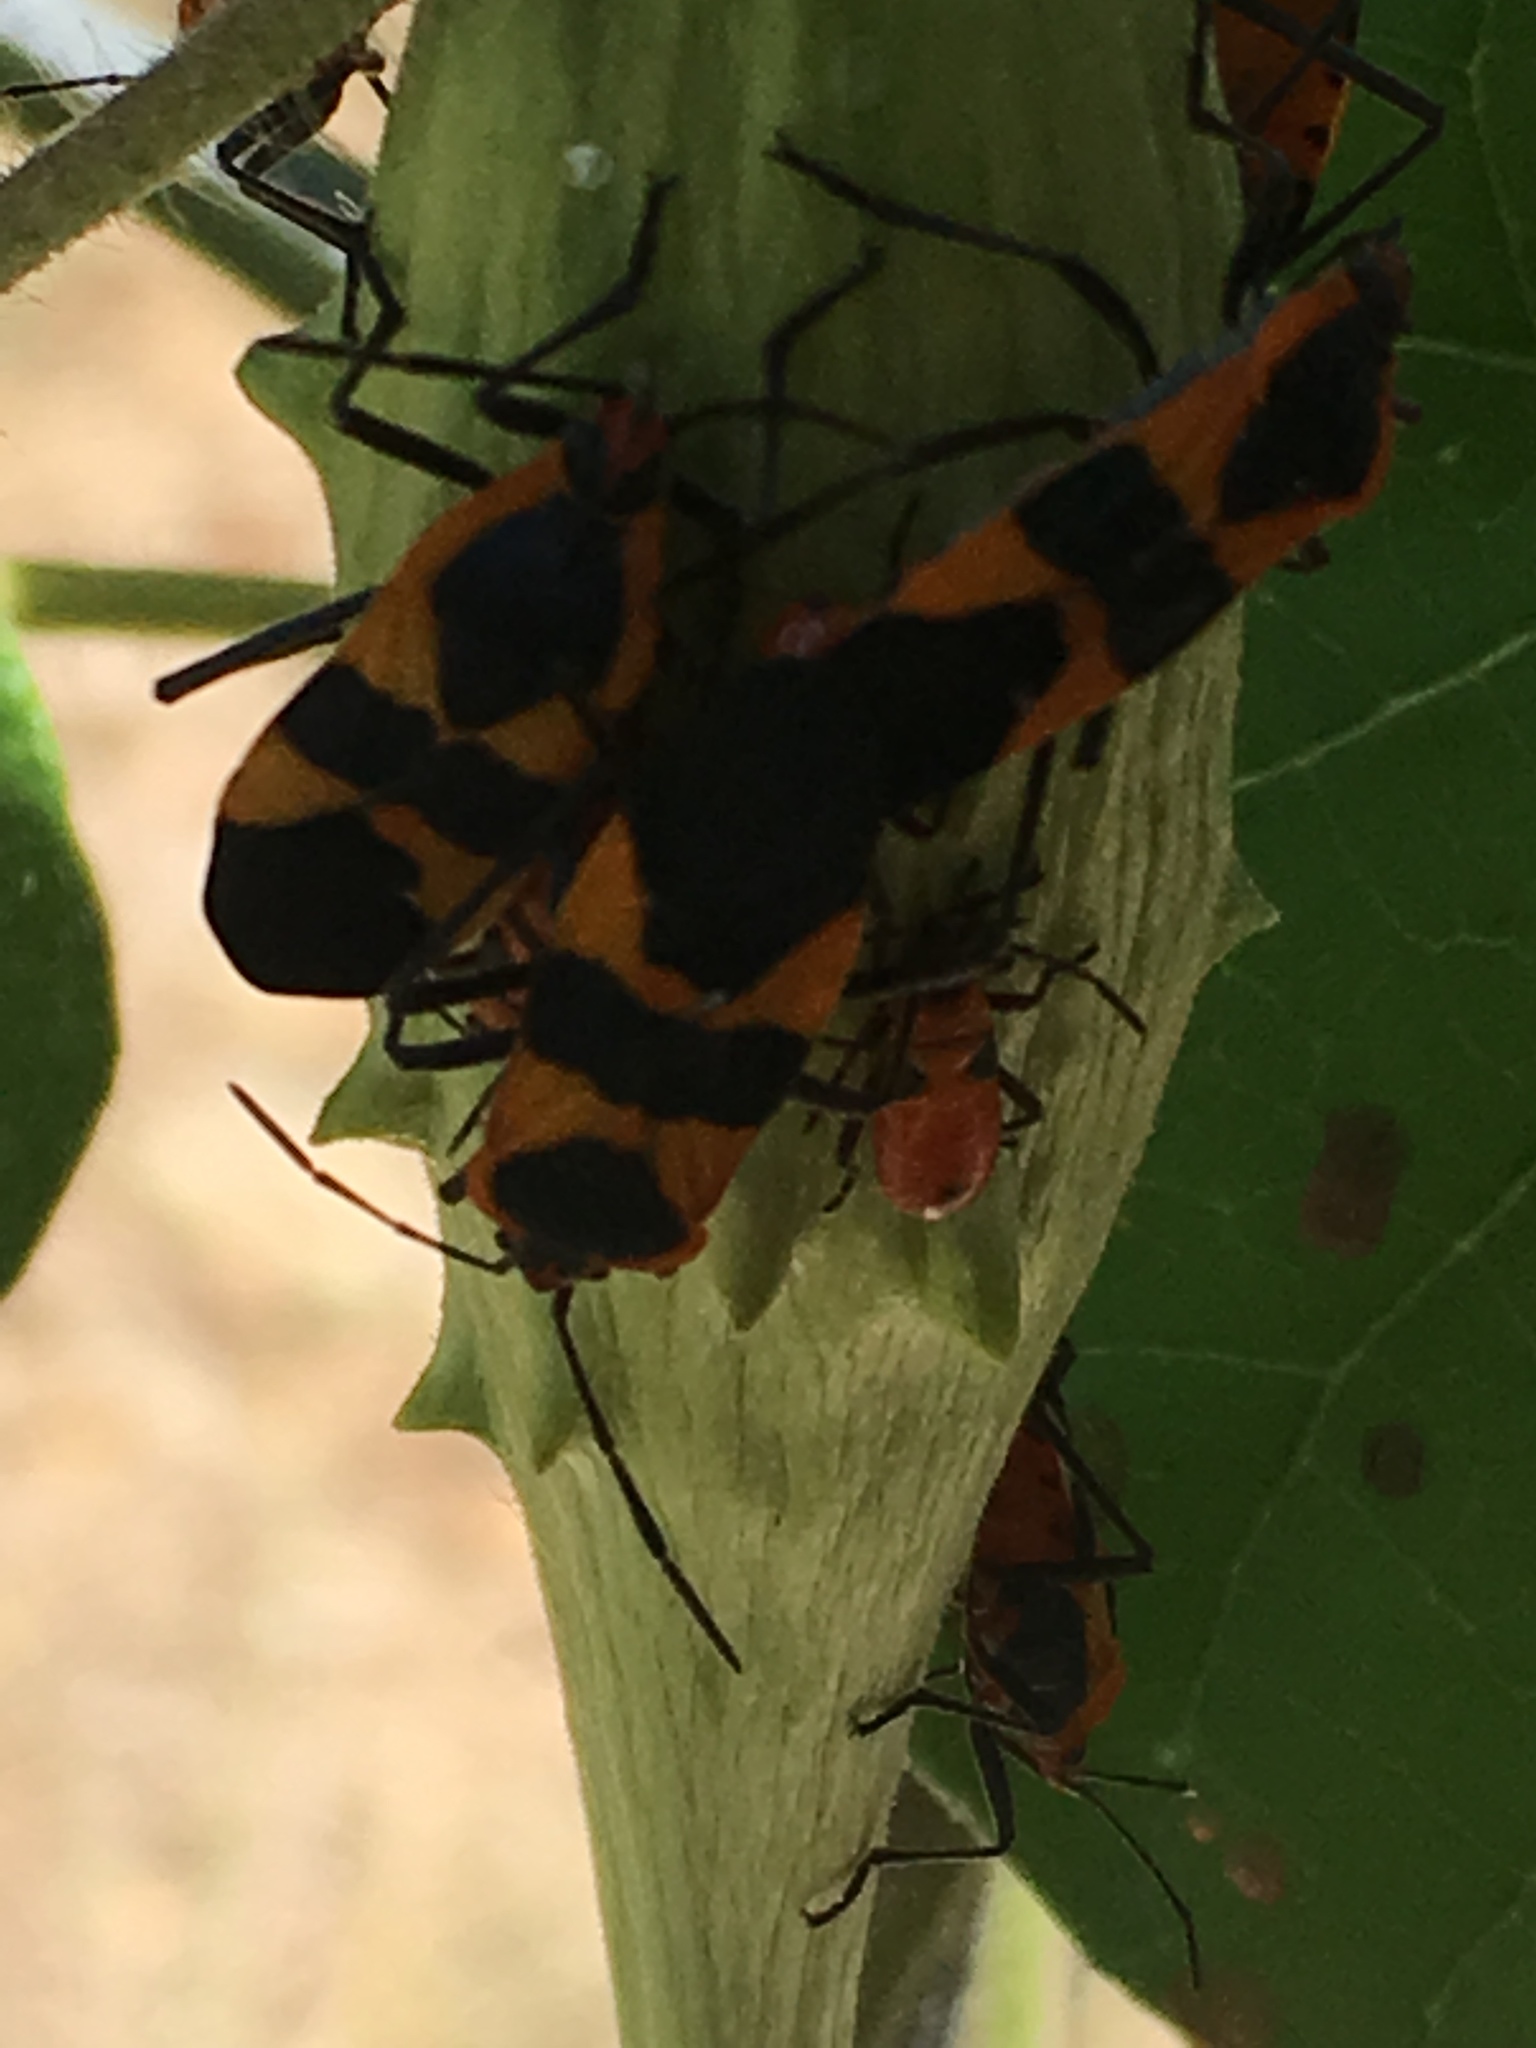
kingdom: Animalia
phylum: Arthropoda
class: Insecta
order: Hemiptera
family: Lygaeidae
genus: Oncopeltus
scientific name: Oncopeltus fasciatus
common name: Large milkweed bug
